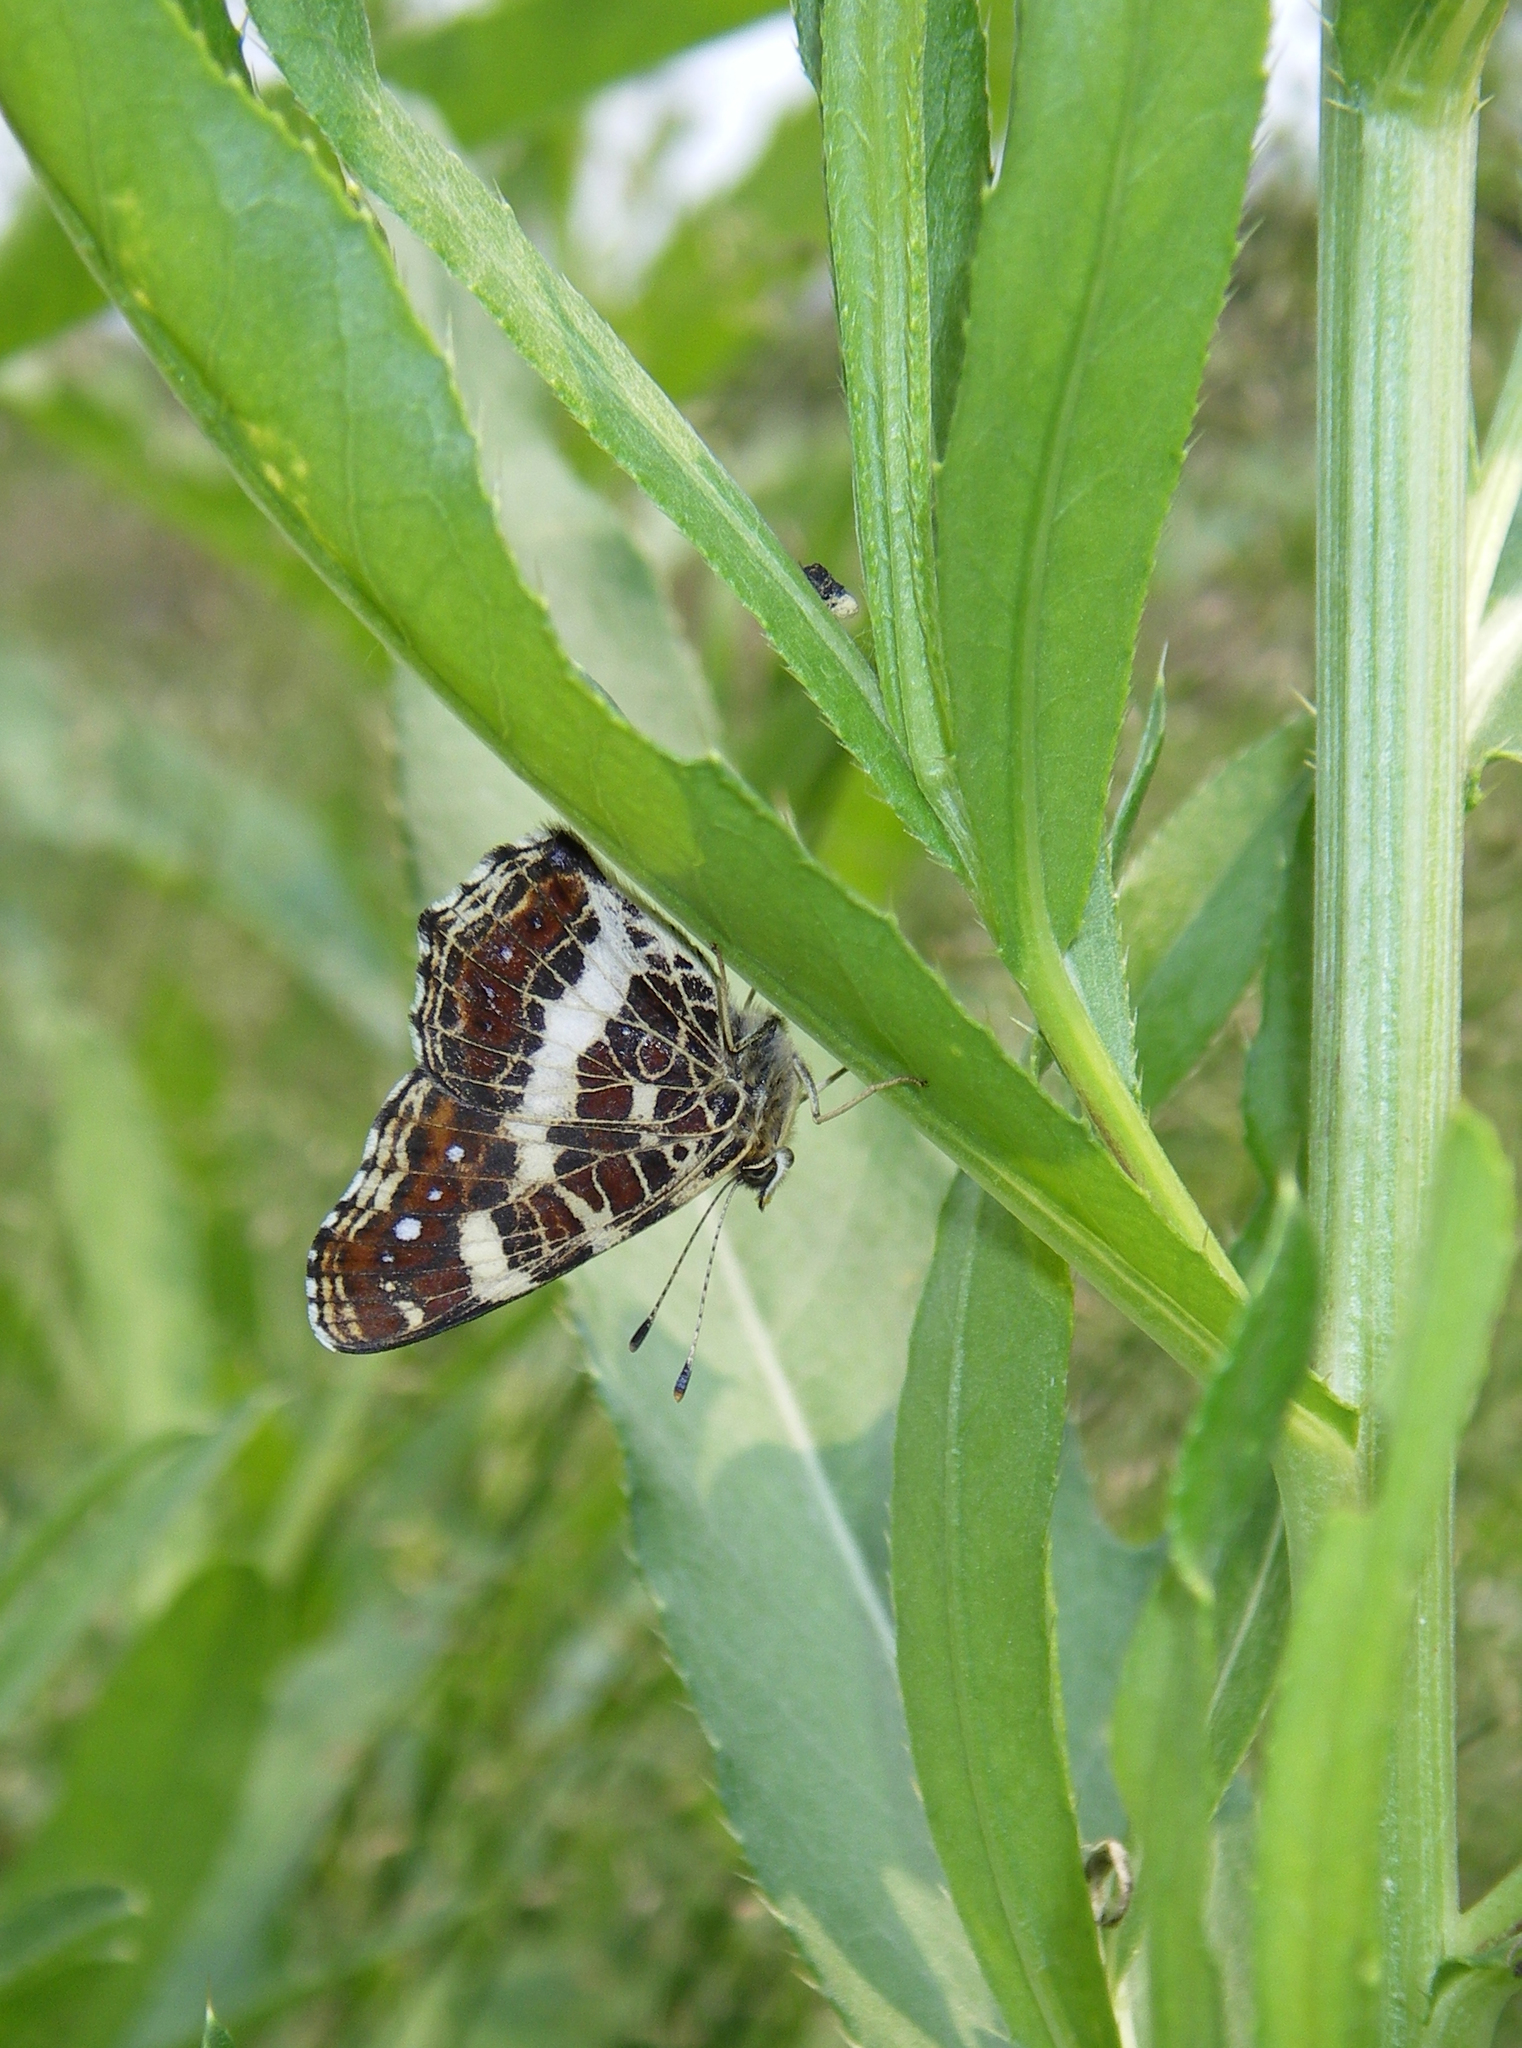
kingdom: Animalia
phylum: Arthropoda
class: Insecta
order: Lepidoptera
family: Nymphalidae
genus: Araschnia
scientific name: Araschnia levana
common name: Map butterfly
